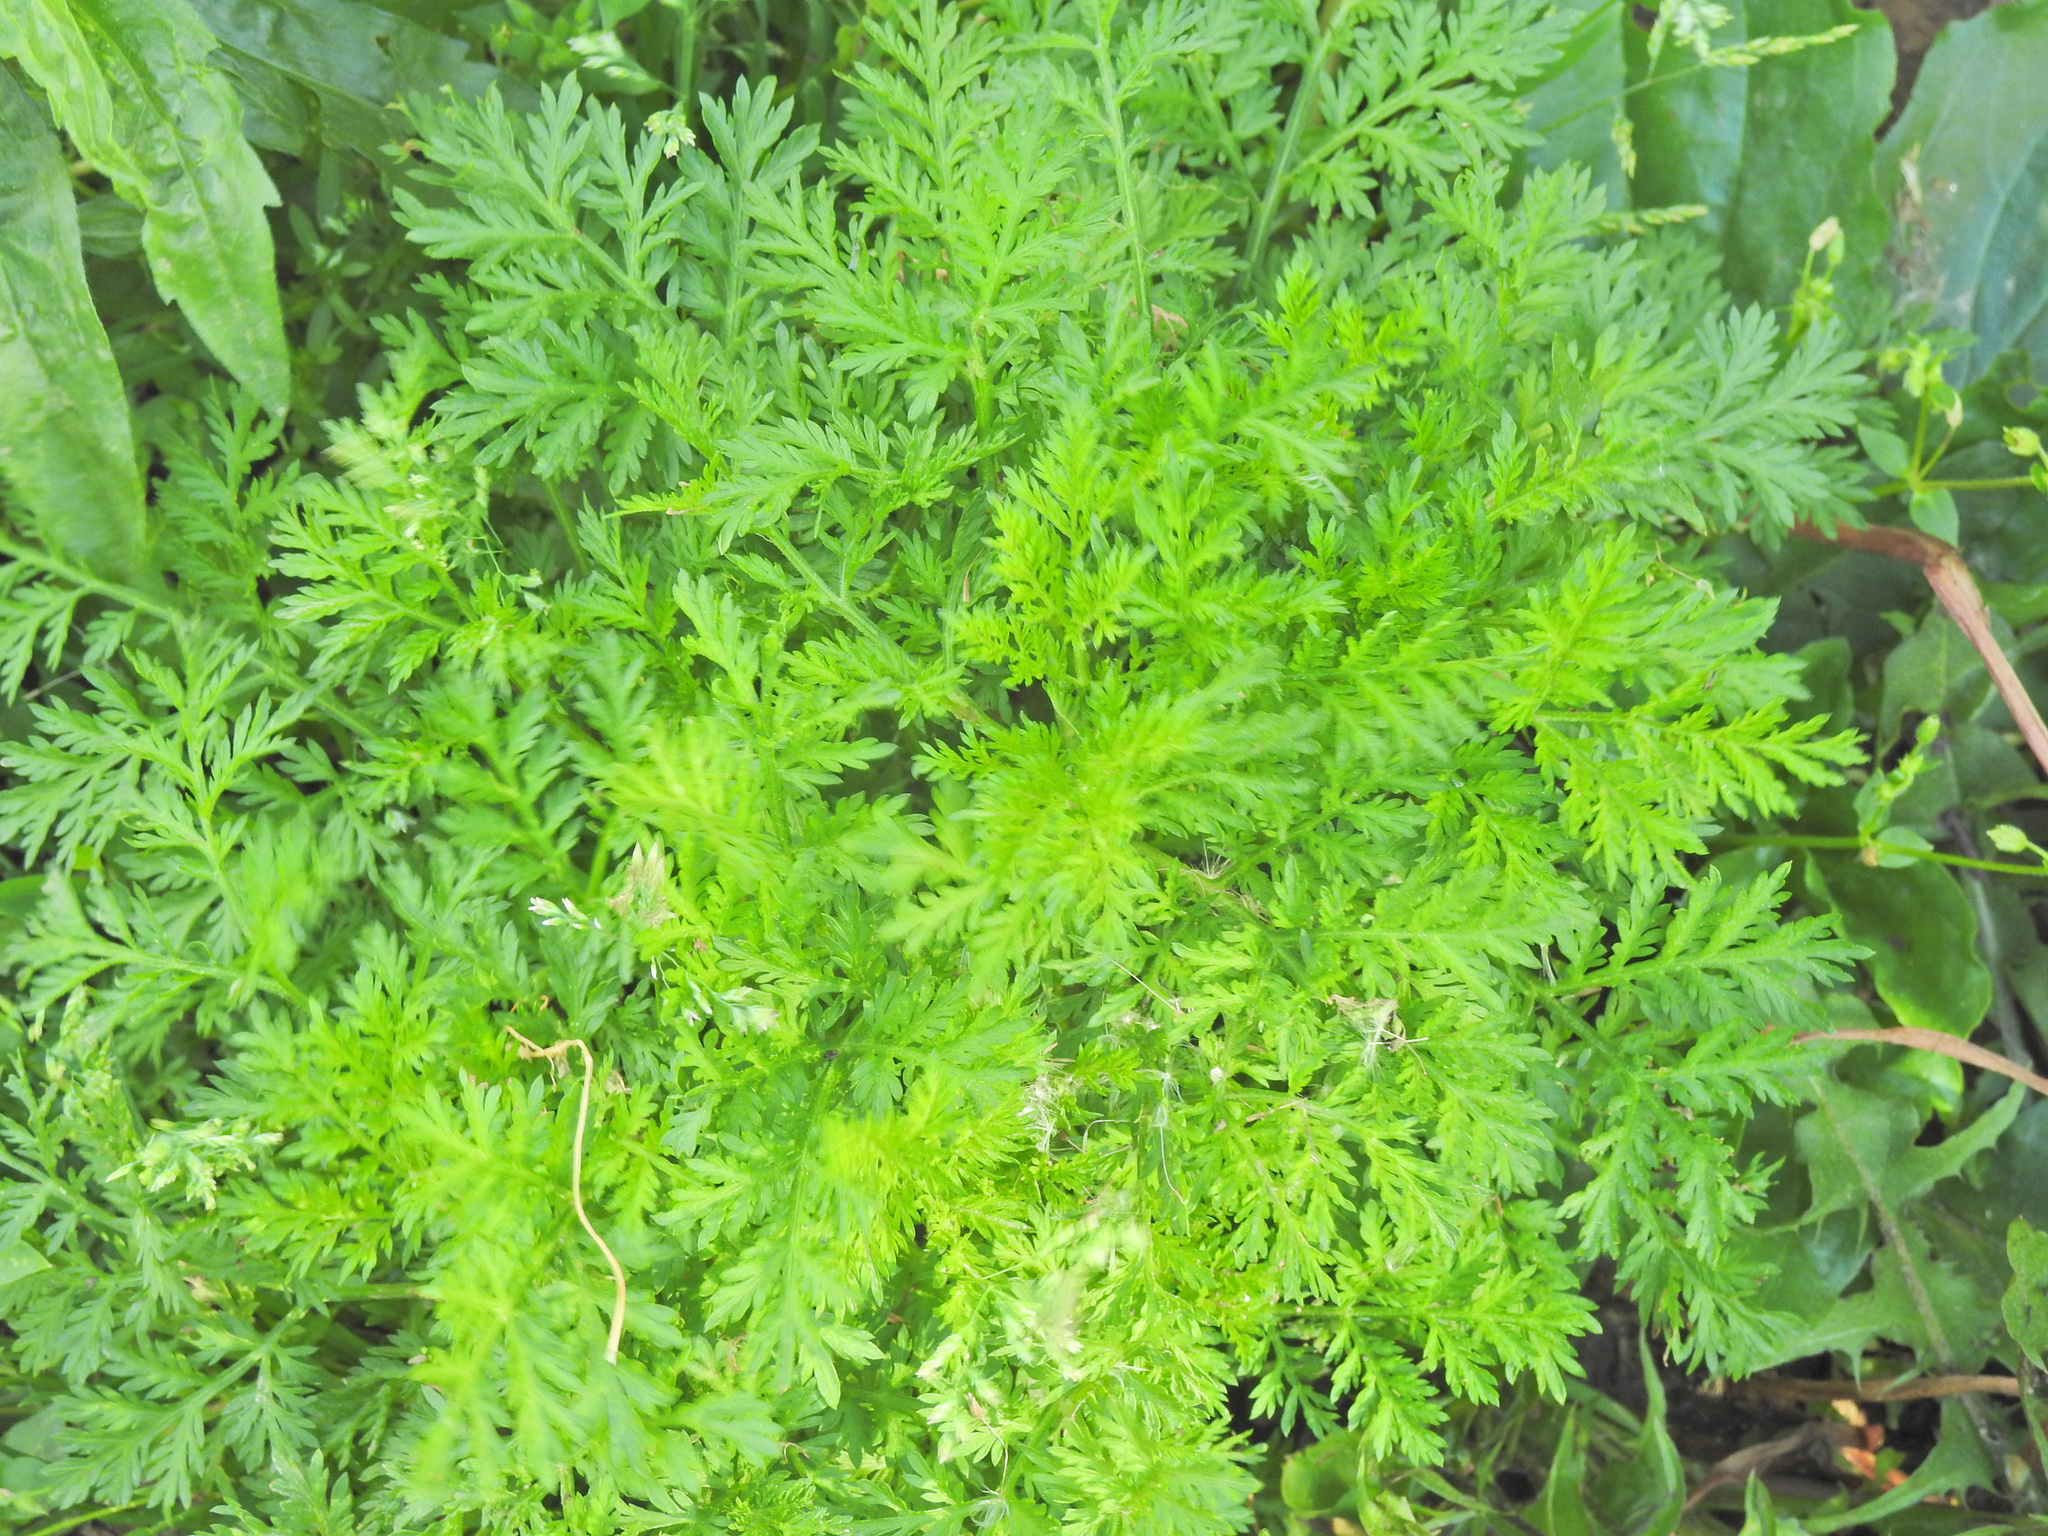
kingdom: Plantae
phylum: Tracheophyta
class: Magnoliopsida
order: Asterales
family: Asteraceae
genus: Artemisia
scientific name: Artemisia annua
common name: Sweet sagewort
